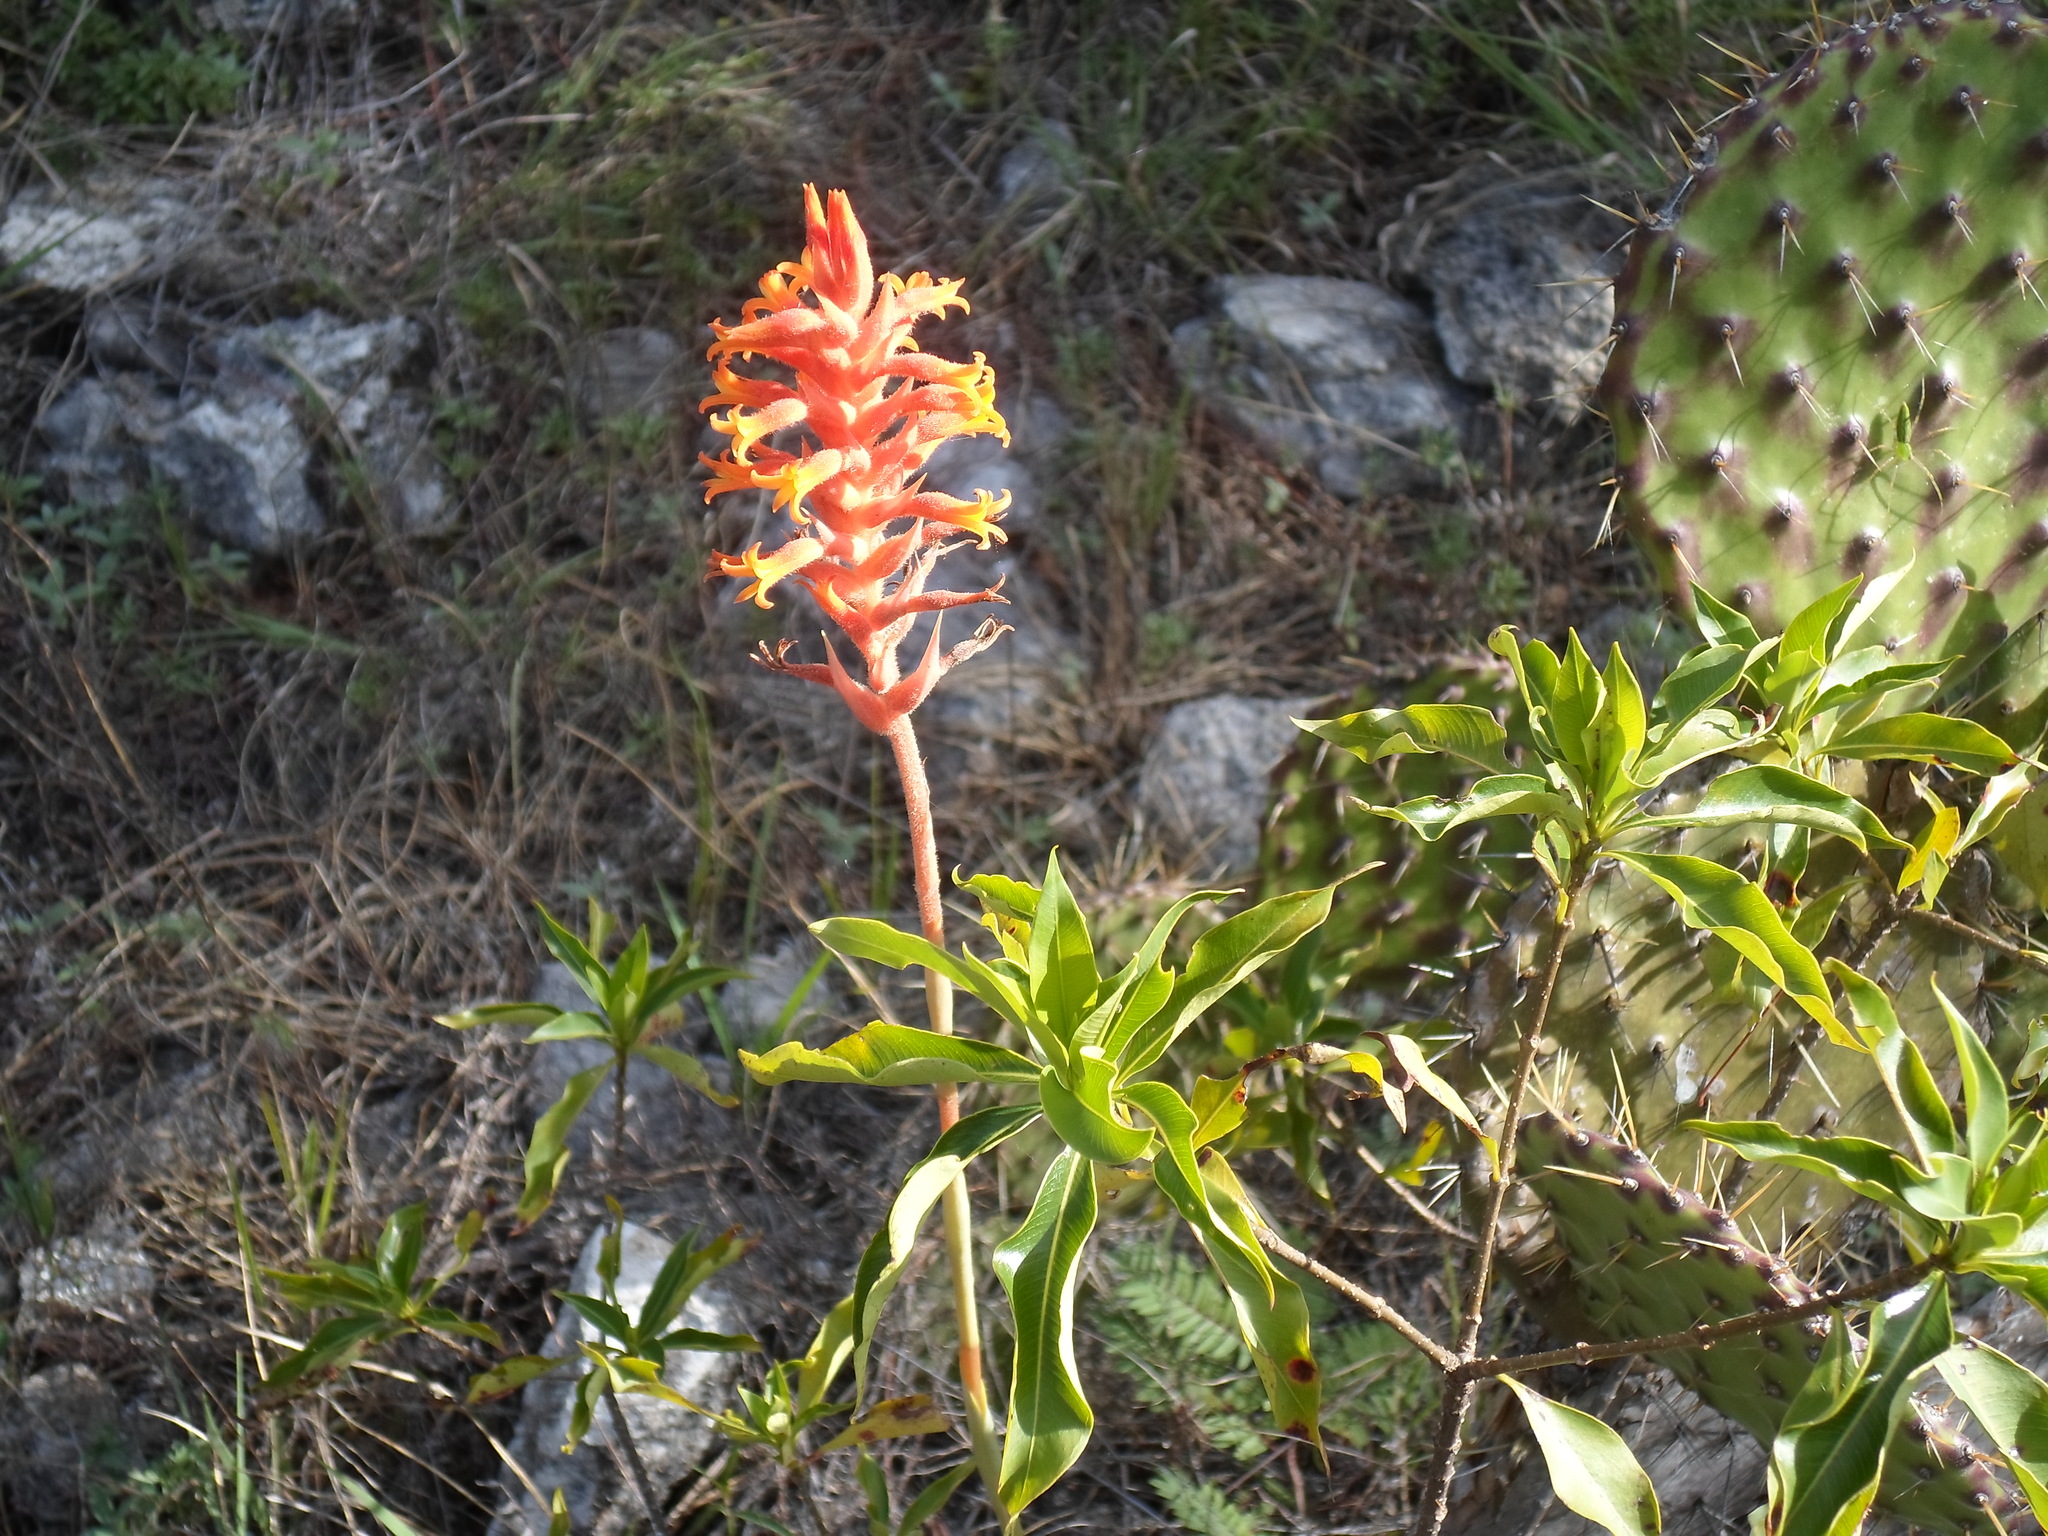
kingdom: Plantae
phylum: Tracheophyta
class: Liliopsida
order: Asparagales
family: Orchidaceae
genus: Dichromanthus
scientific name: Dichromanthus cinnabarinus
